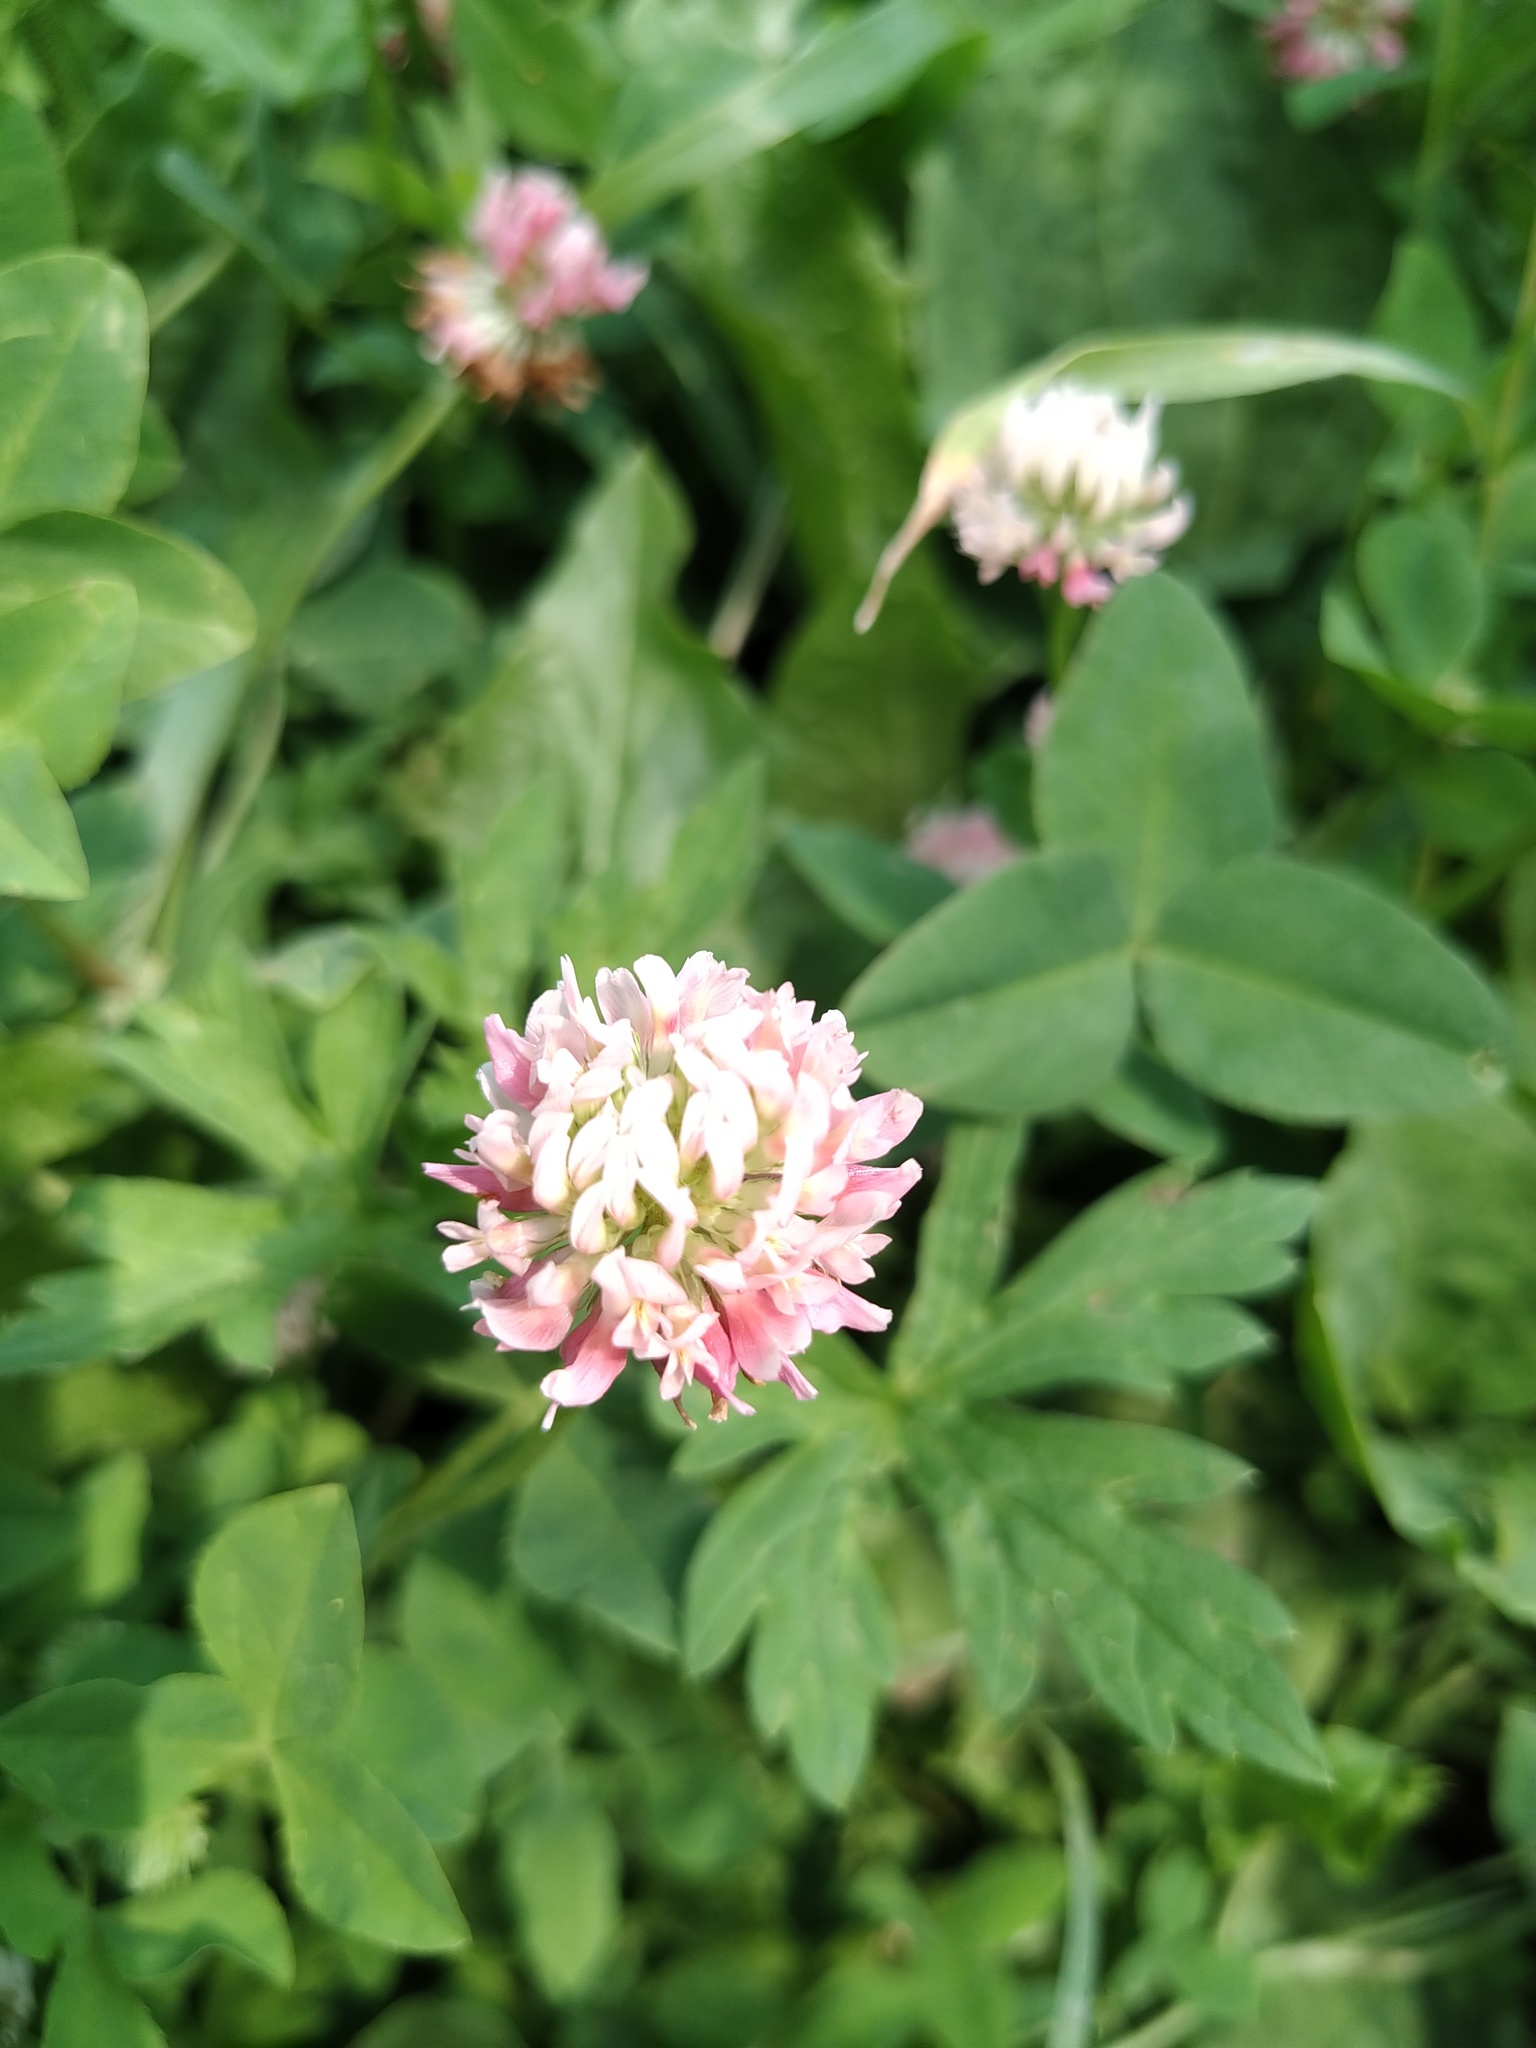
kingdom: Plantae
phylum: Tracheophyta
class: Magnoliopsida
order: Fabales
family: Fabaceae
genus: Trifolium
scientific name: Trifolium hybridum
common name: Alsike clover
